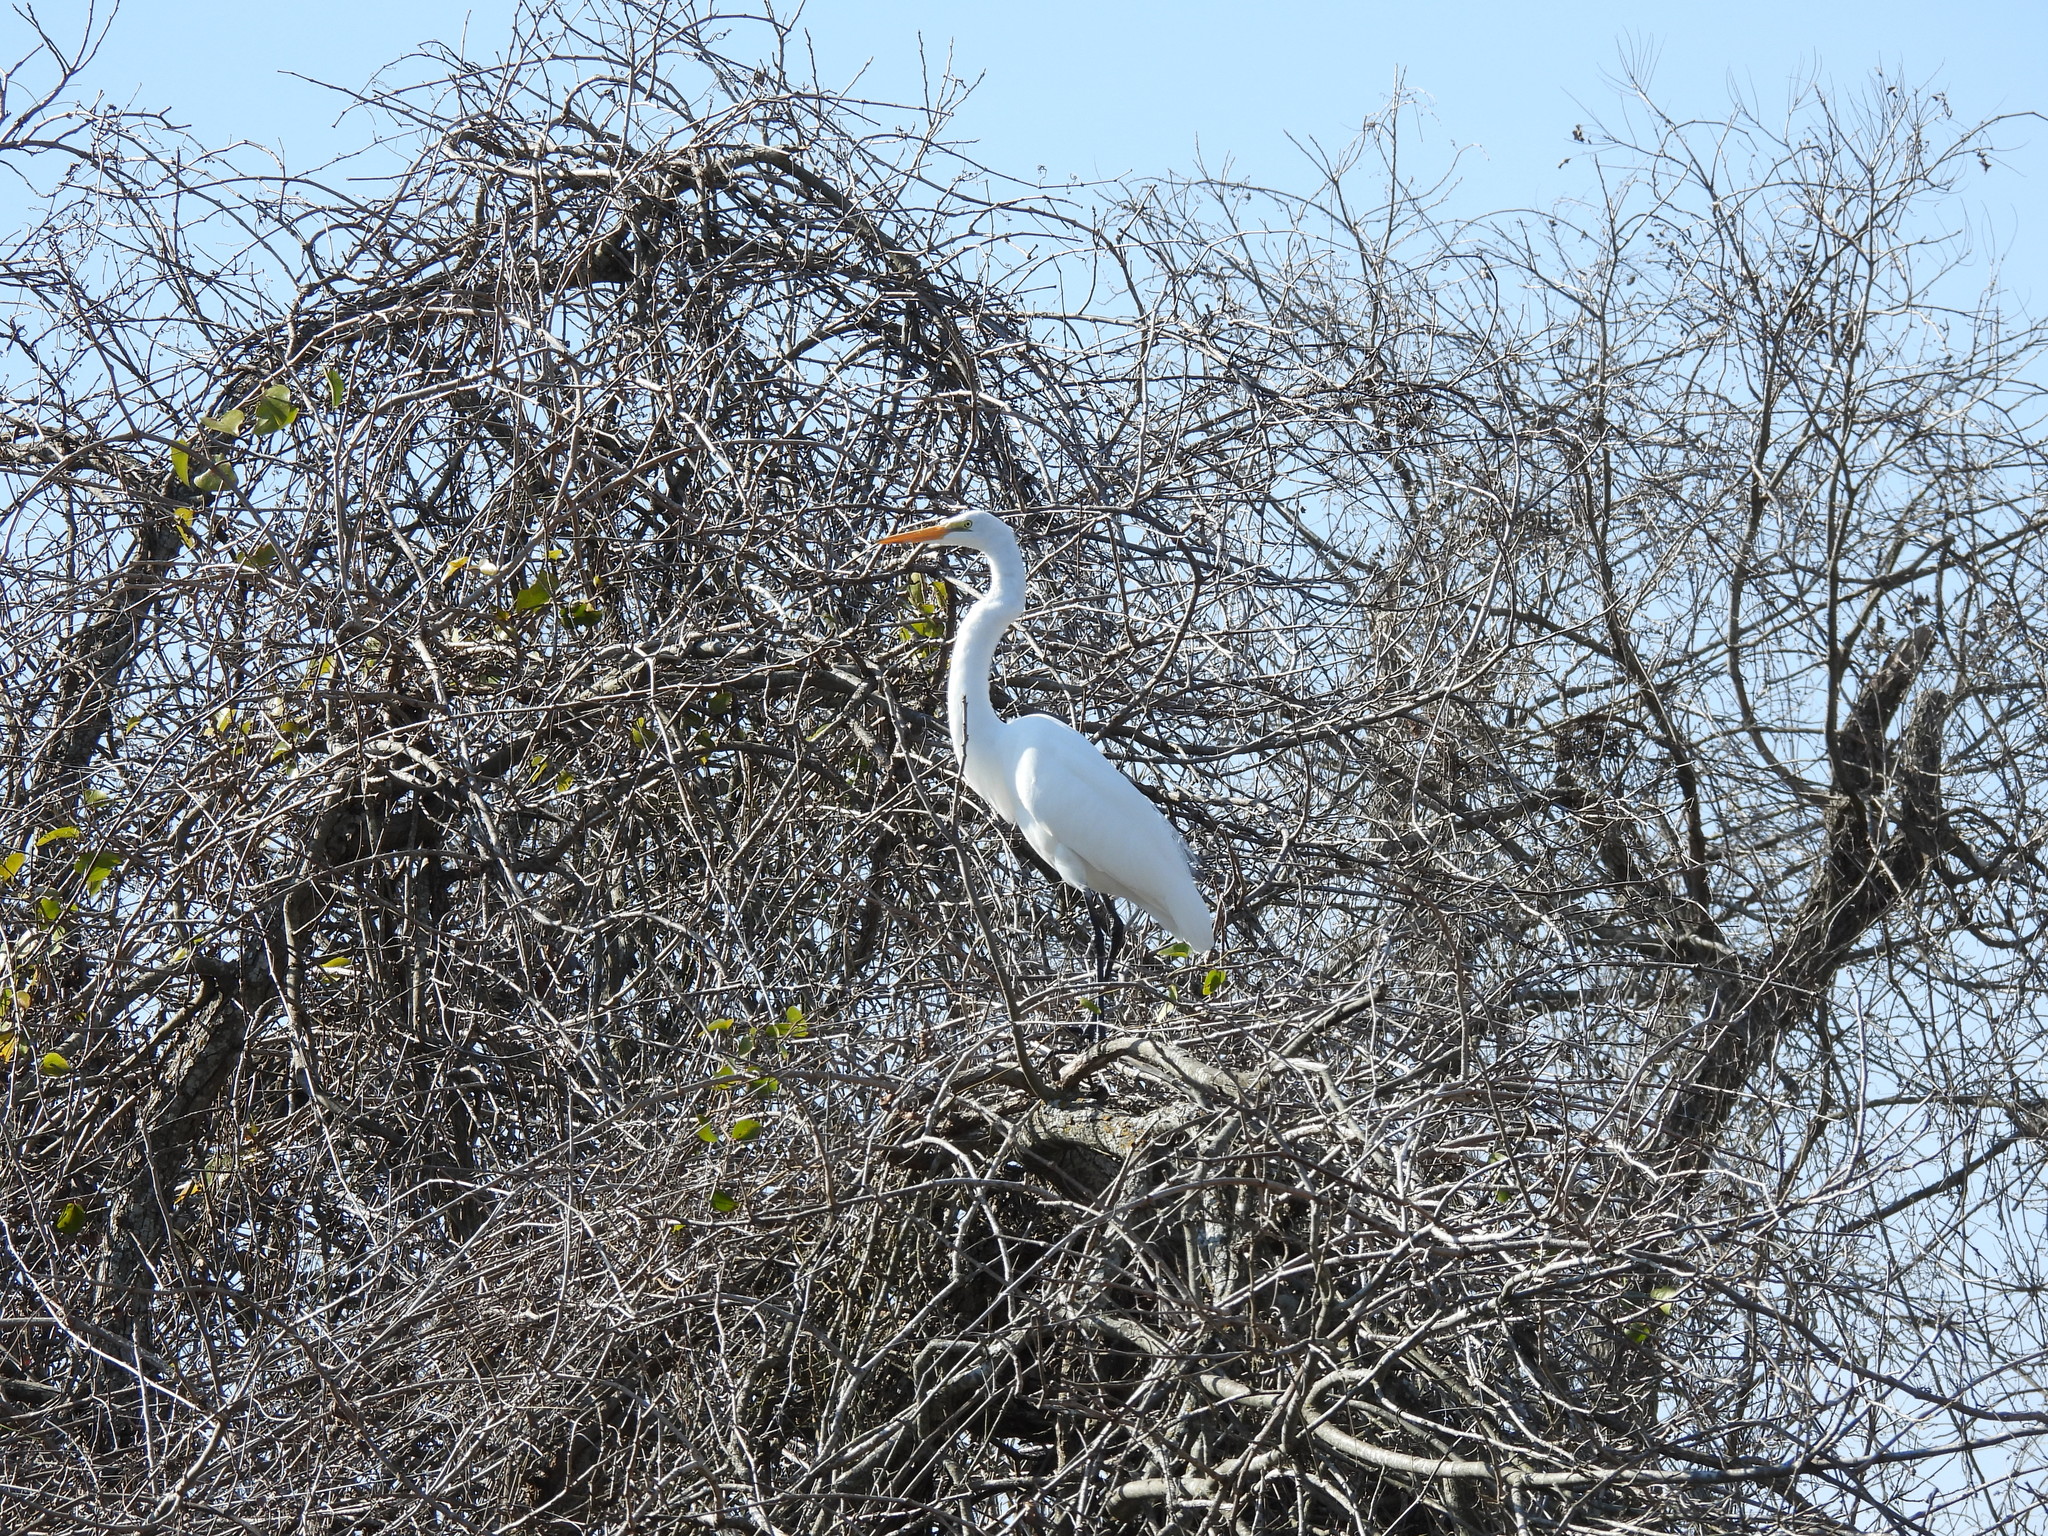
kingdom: Animalia
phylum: Chordata
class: Aves
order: Pelecaniformes
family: Ardeidae
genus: Ardea
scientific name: Ardea alba
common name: Great egret
